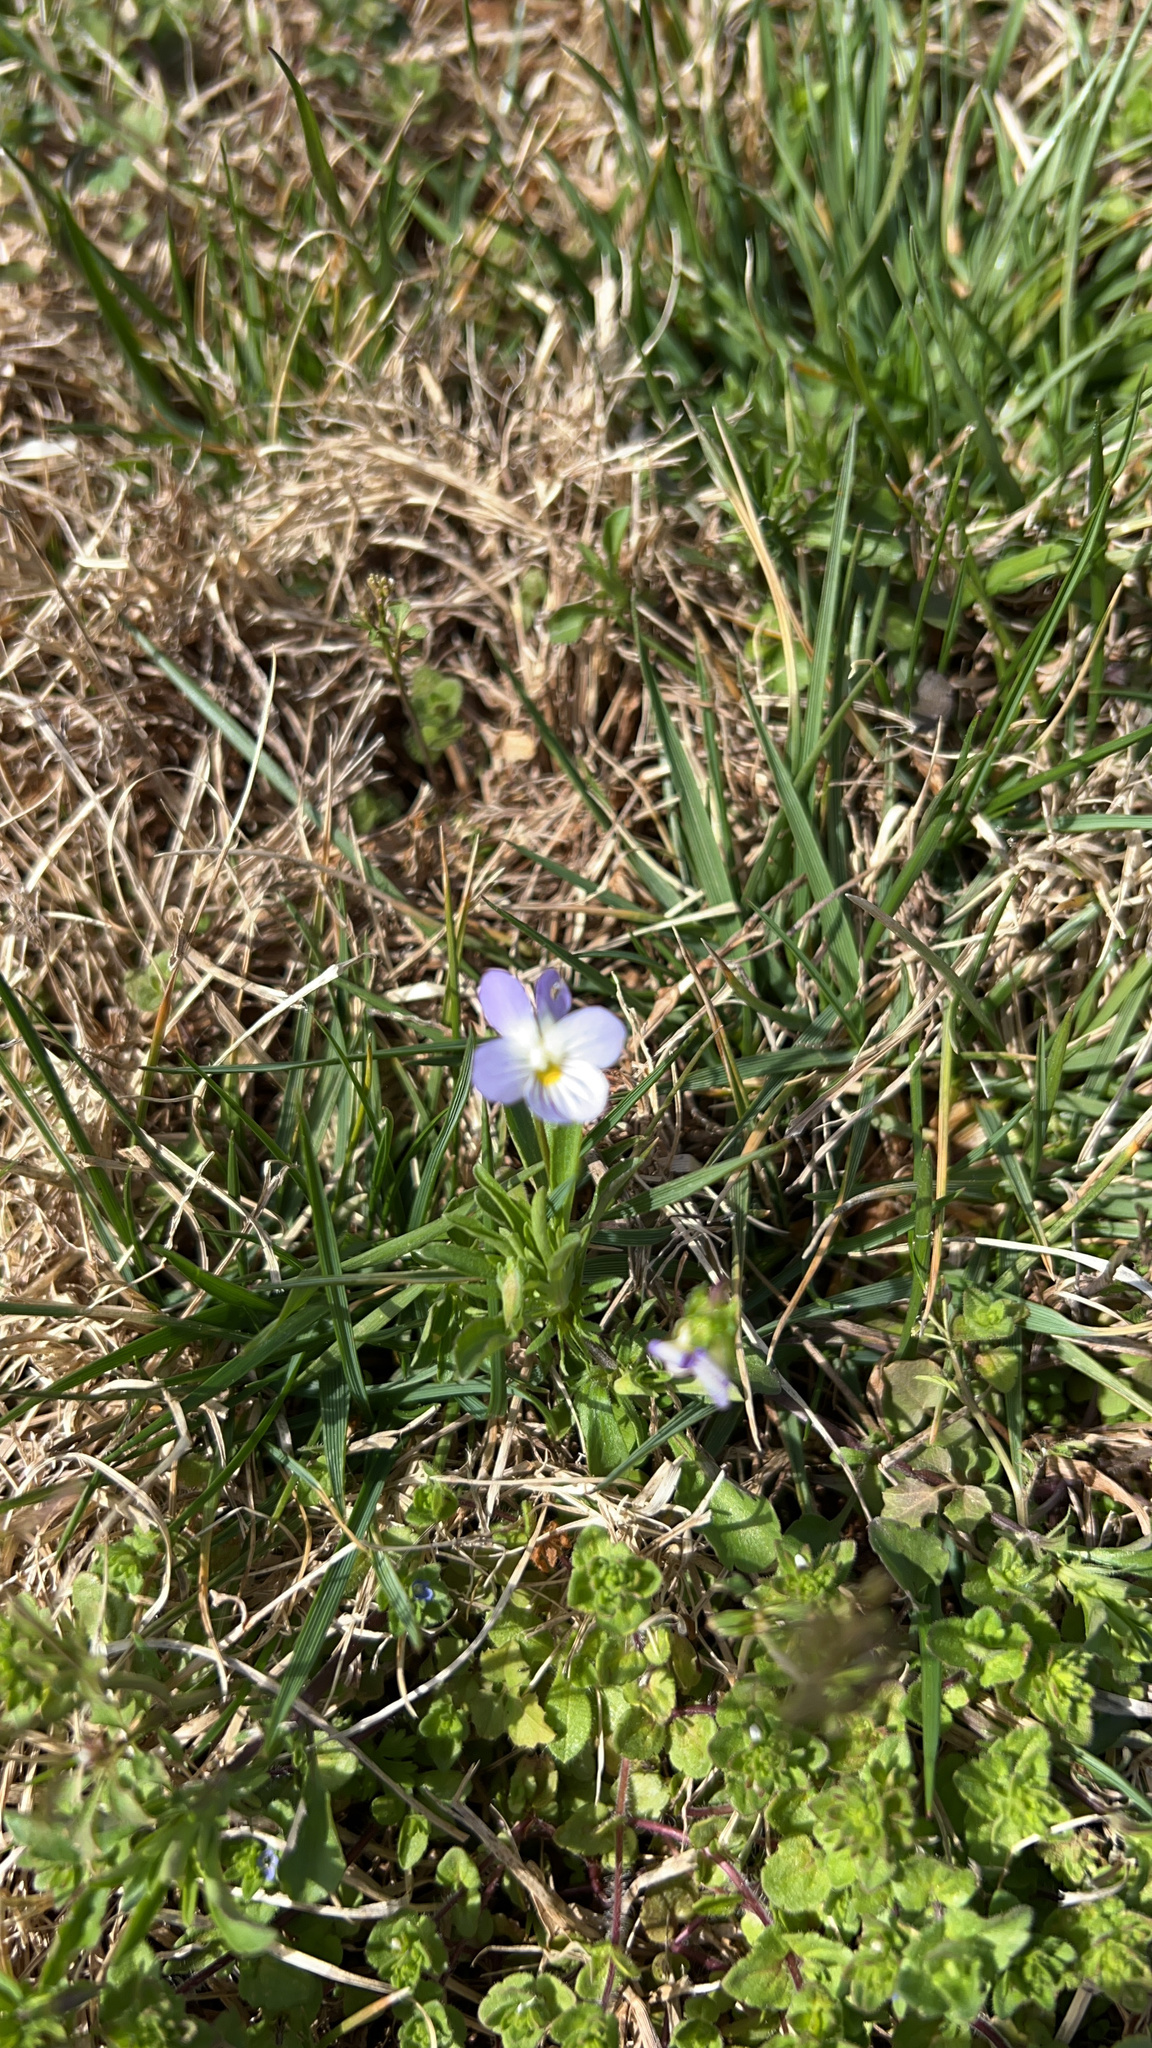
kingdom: Plantae
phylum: Tracheophyta
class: Magnoliopsida
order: Malpighiales
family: Violaceae
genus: Viola
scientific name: Viola rafinesquei
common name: American field pansy
